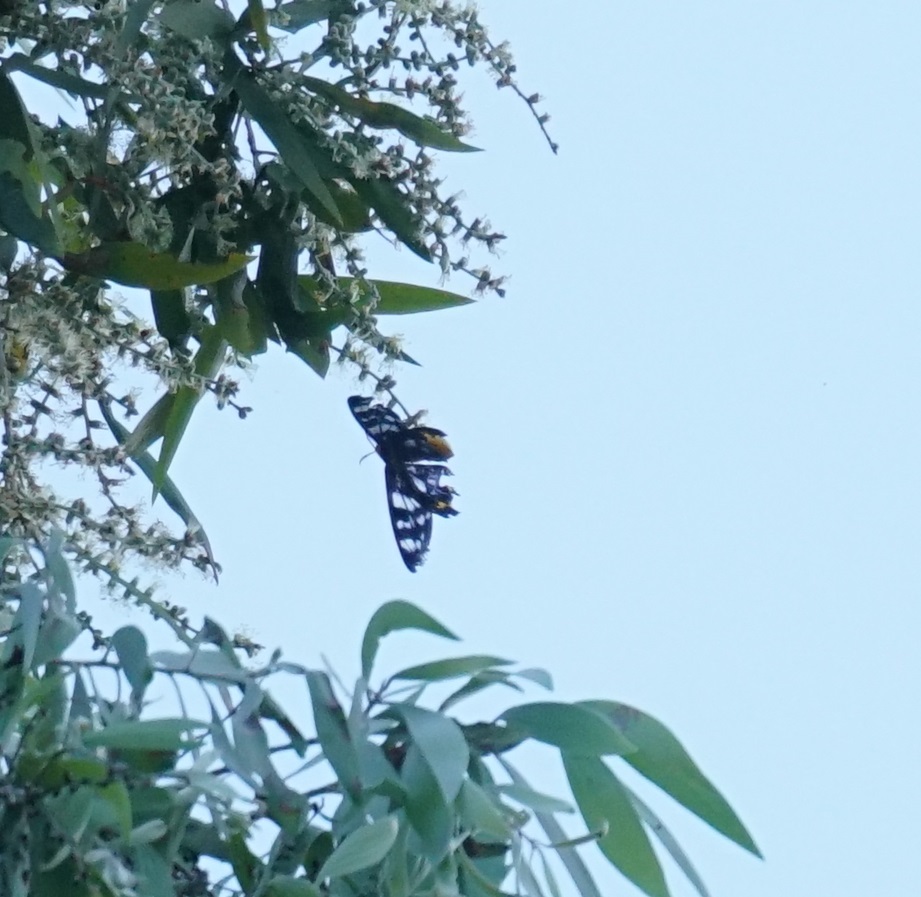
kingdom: Animalia
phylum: Arthropoda
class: Insecta
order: Lepidoptera
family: Geometridae
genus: Dysphania
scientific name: Dysphania numana
